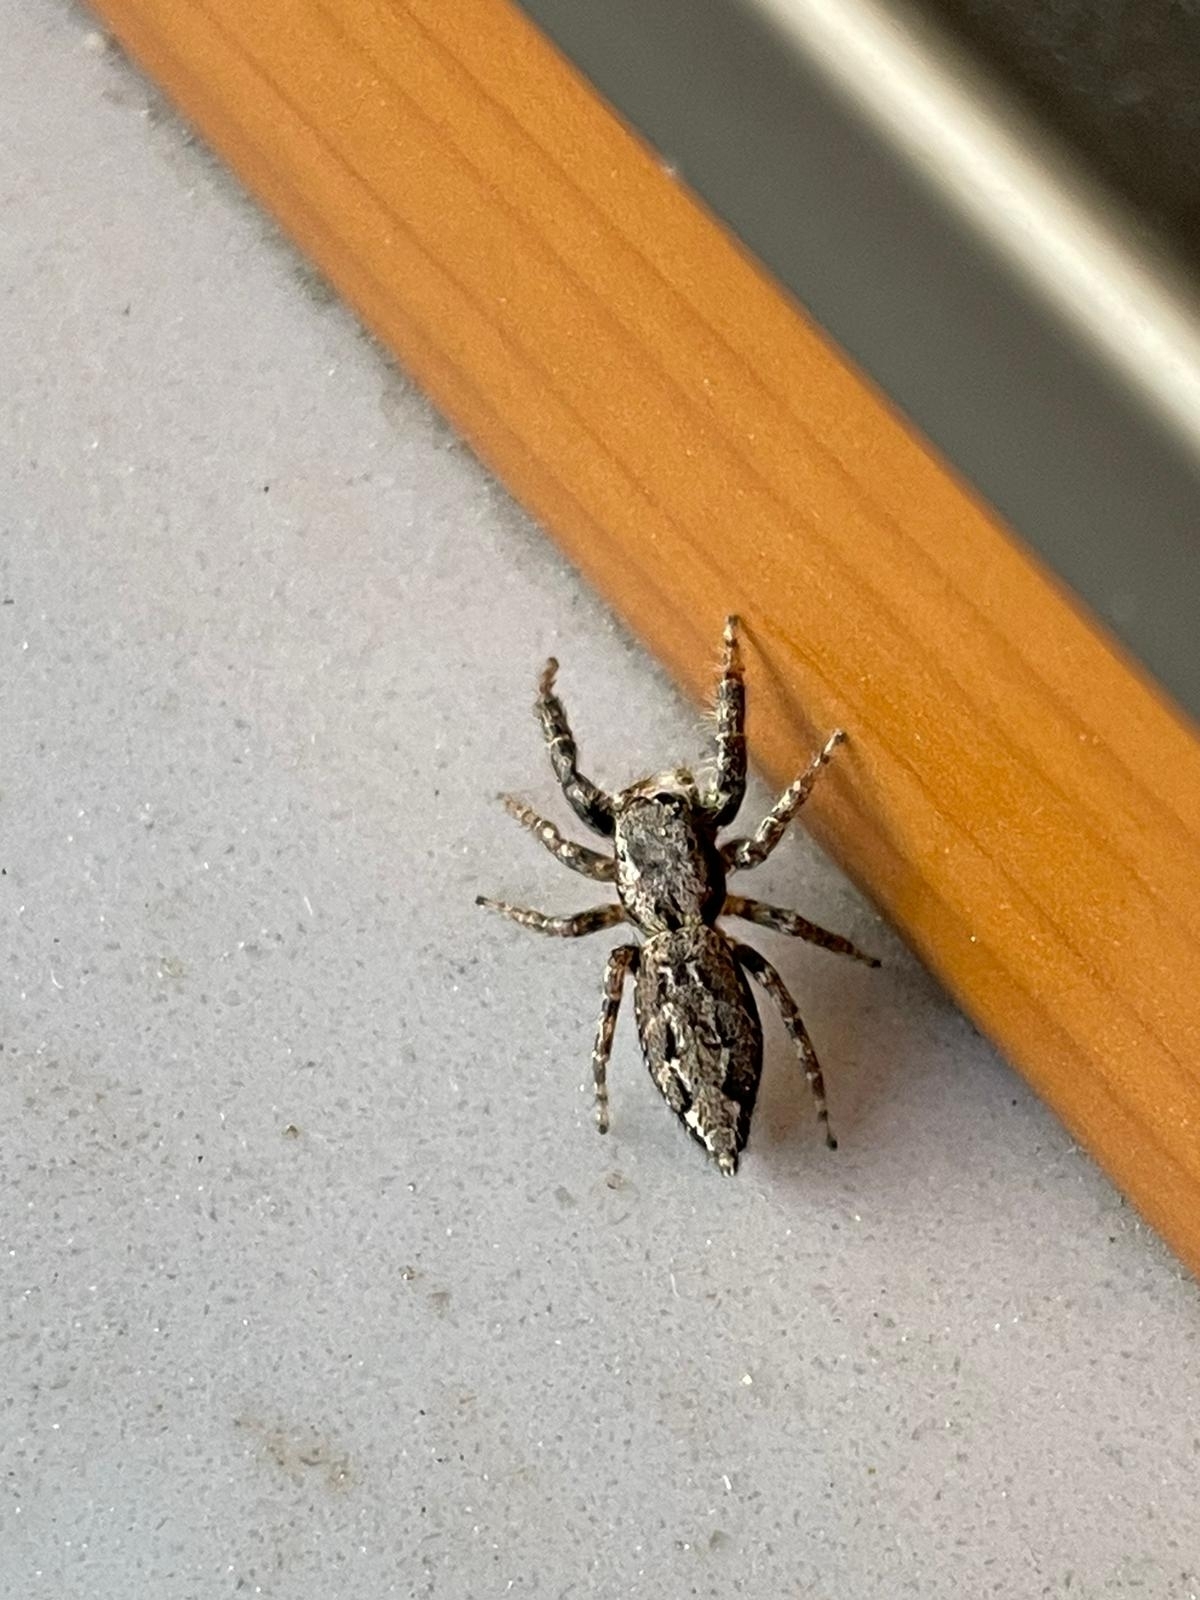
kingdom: Animalia
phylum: Arthropoda
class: Arachnida
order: Araneae
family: Salticidae
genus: Marpissa
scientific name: Marpissa muscosa
